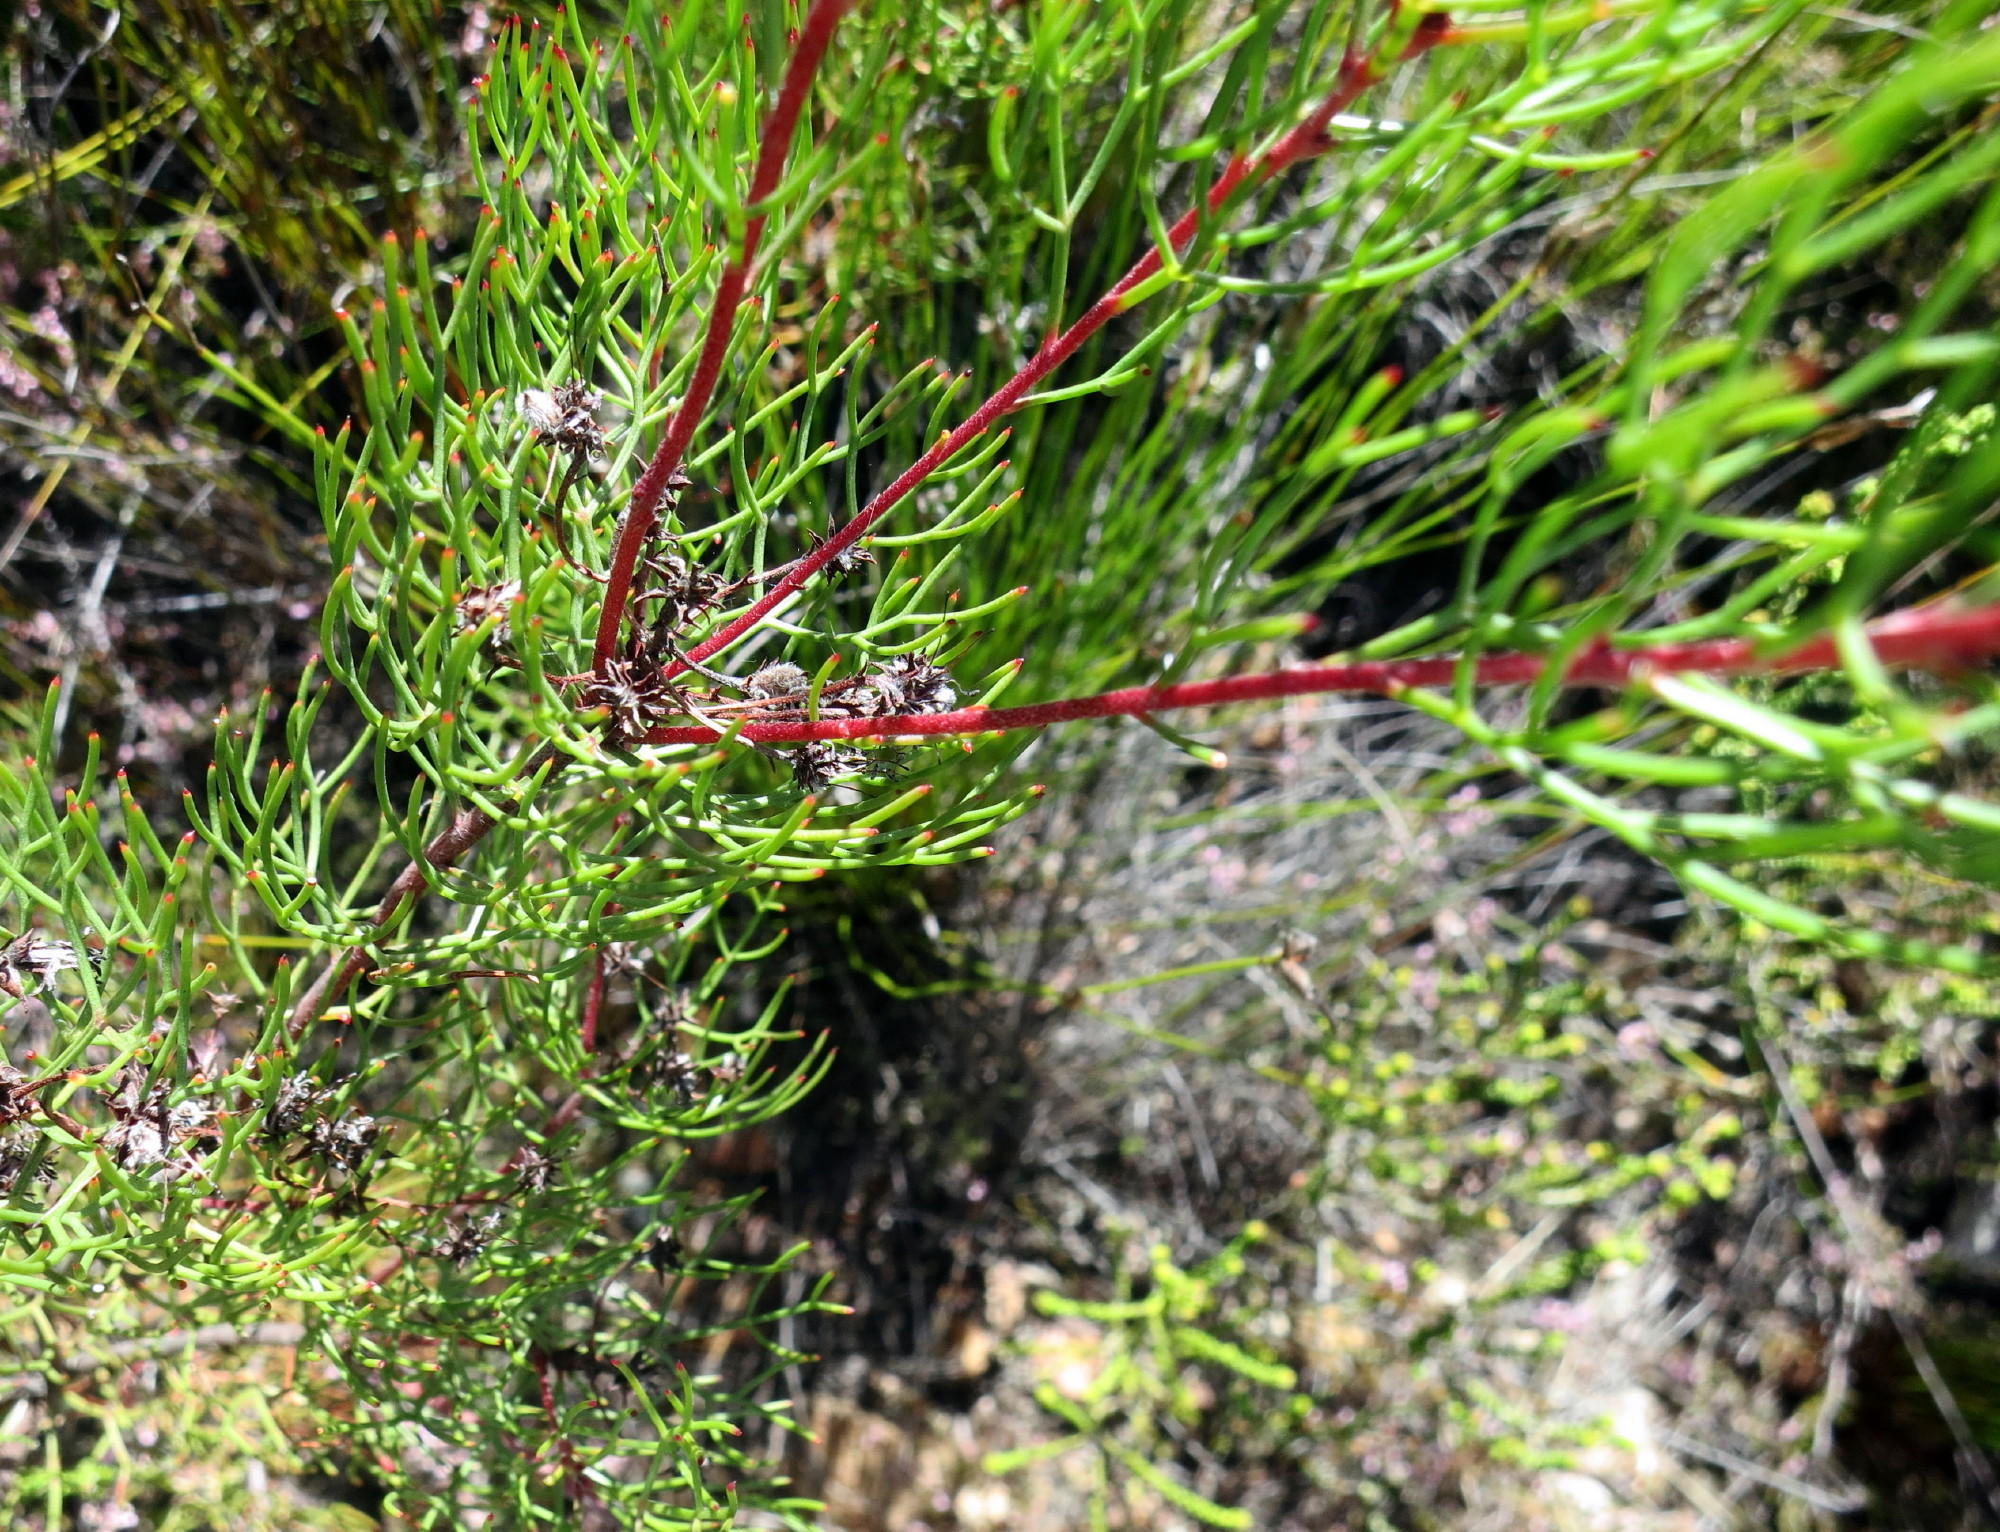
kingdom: Plantae
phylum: Tracheophyta
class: Magnoliopsida
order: Proteales
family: Proteaceae
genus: Serruria
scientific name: Serruria fasciflora
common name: Common pin spiderhead
